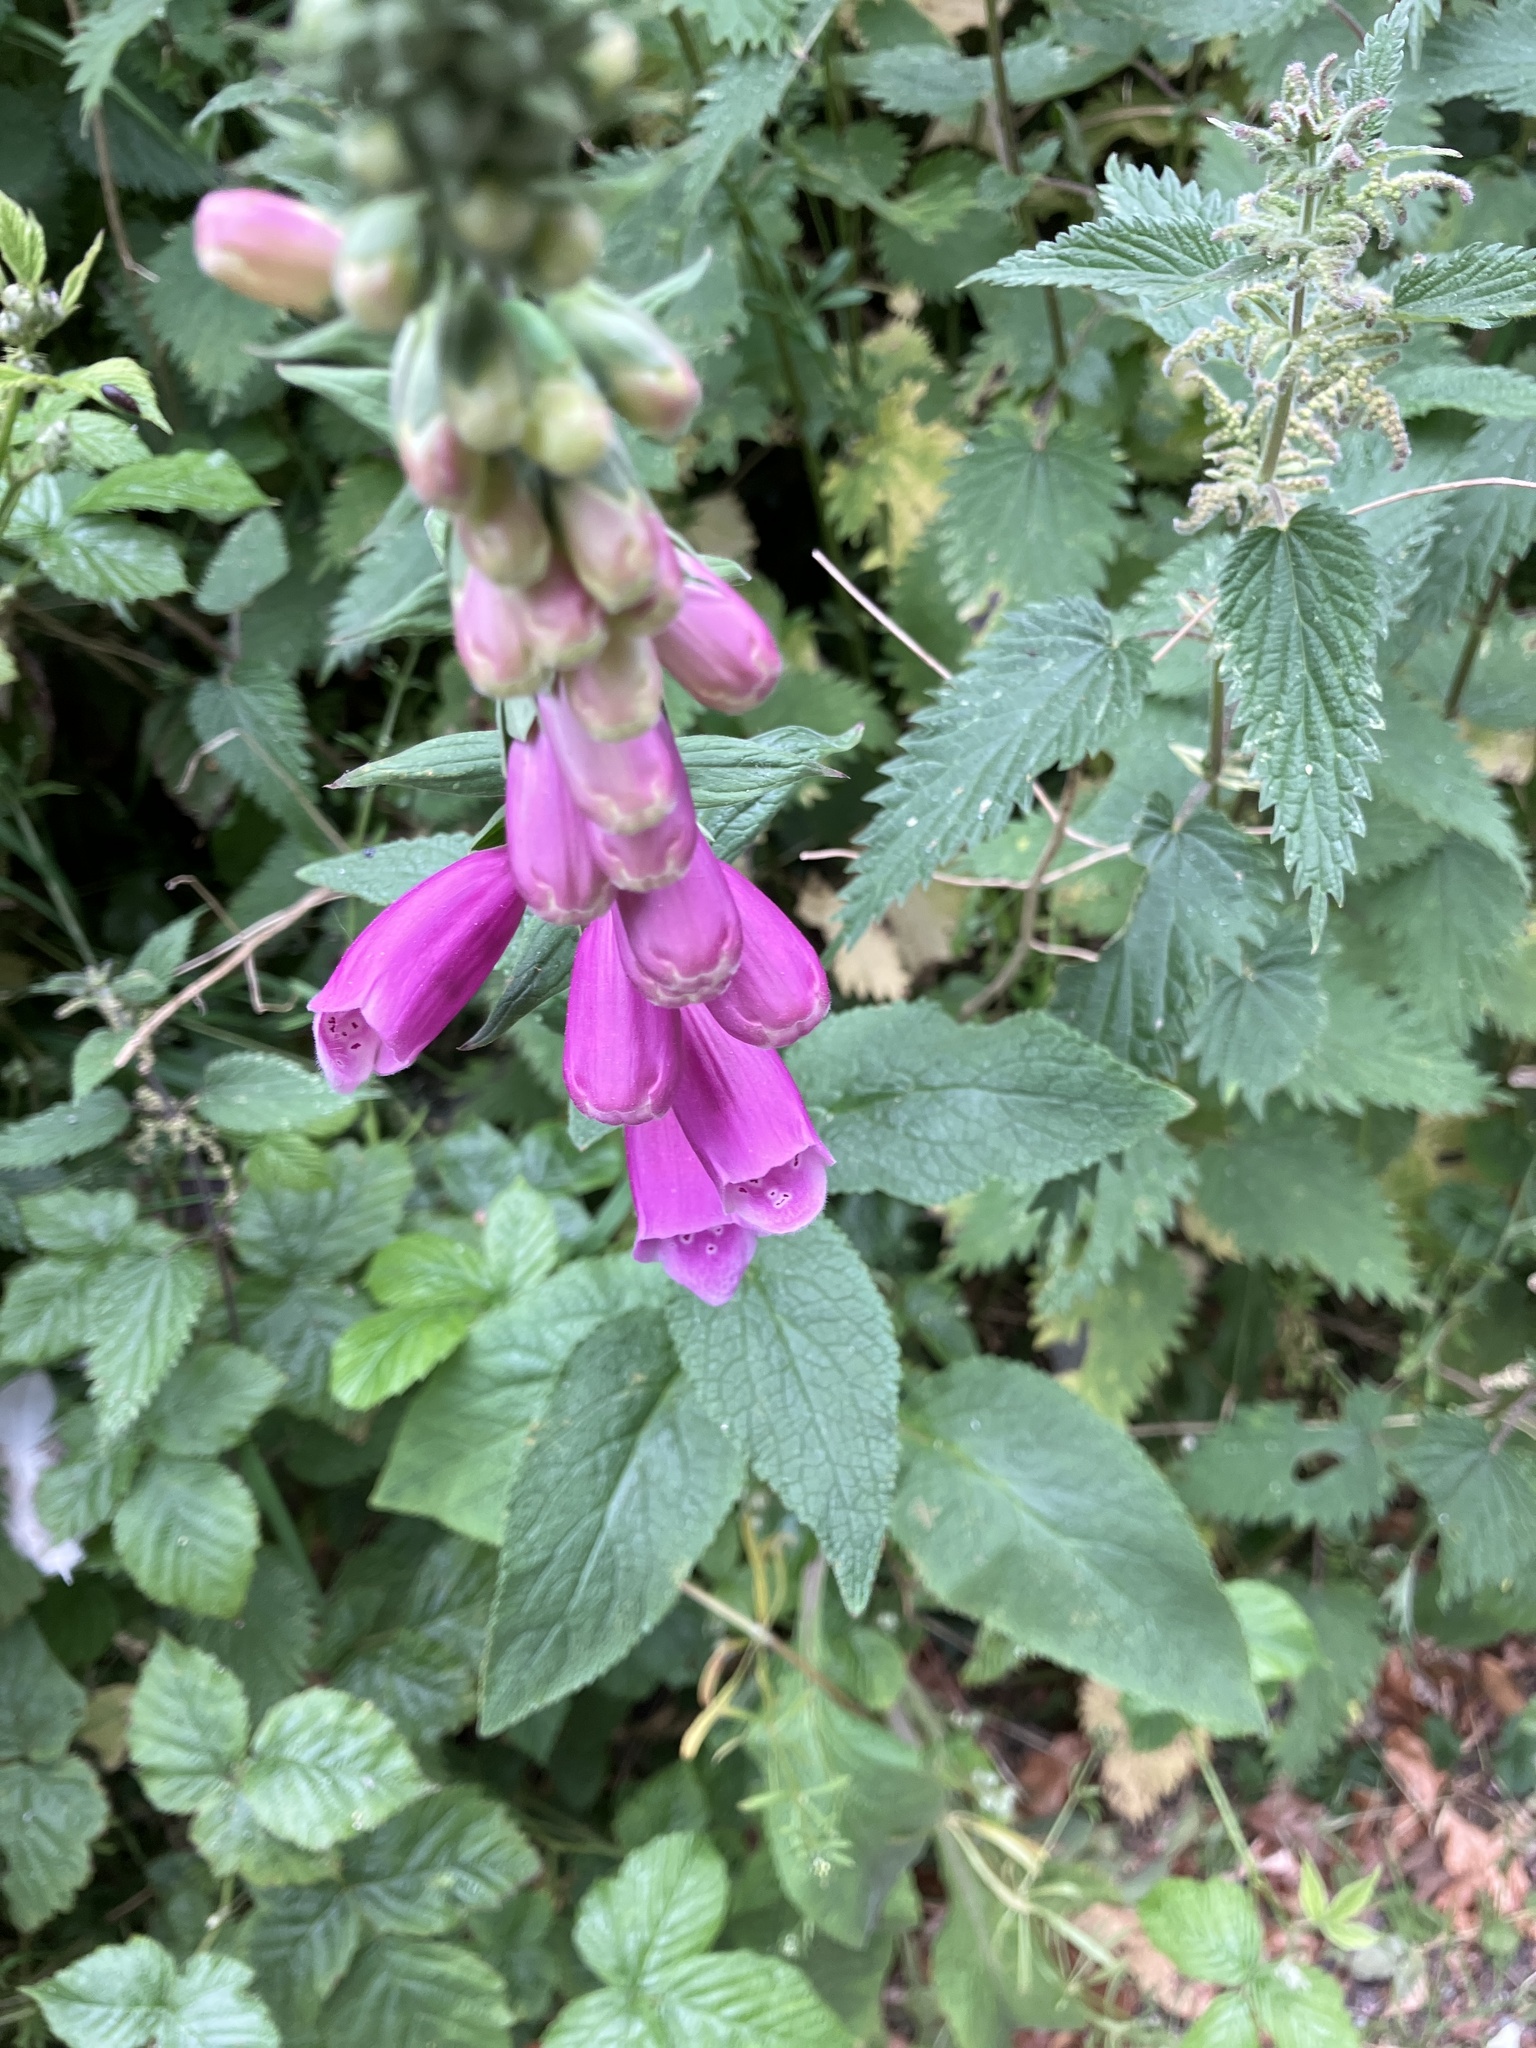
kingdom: Plantae
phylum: Tracheophyta
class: Magnoliopsida
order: Lamiales
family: Plantaginaceae
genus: Digitalis
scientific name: Digitalis purpurea
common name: Foxglove
